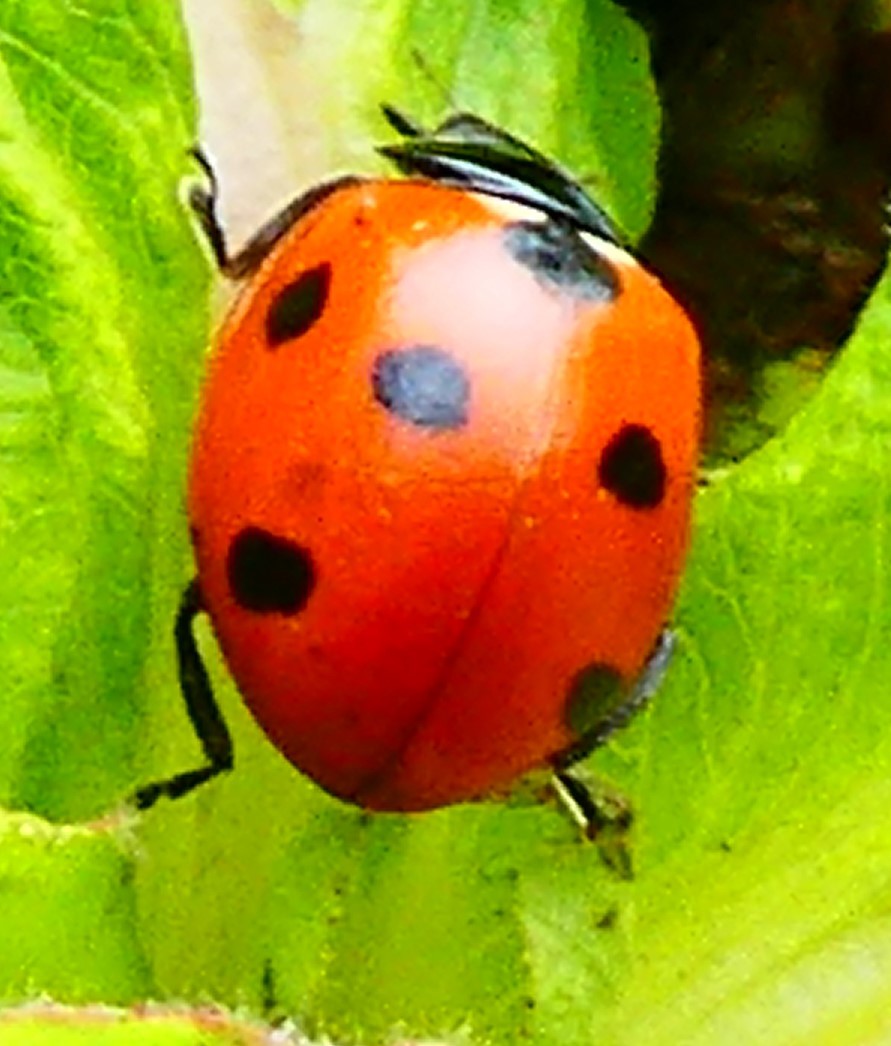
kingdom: Animalia
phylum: Arthropoda
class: Insecta
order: Coleoptera
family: Coccinellidae
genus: Coccinella
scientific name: Coccinella septempunctata
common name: Sevenspotted lady beetle
